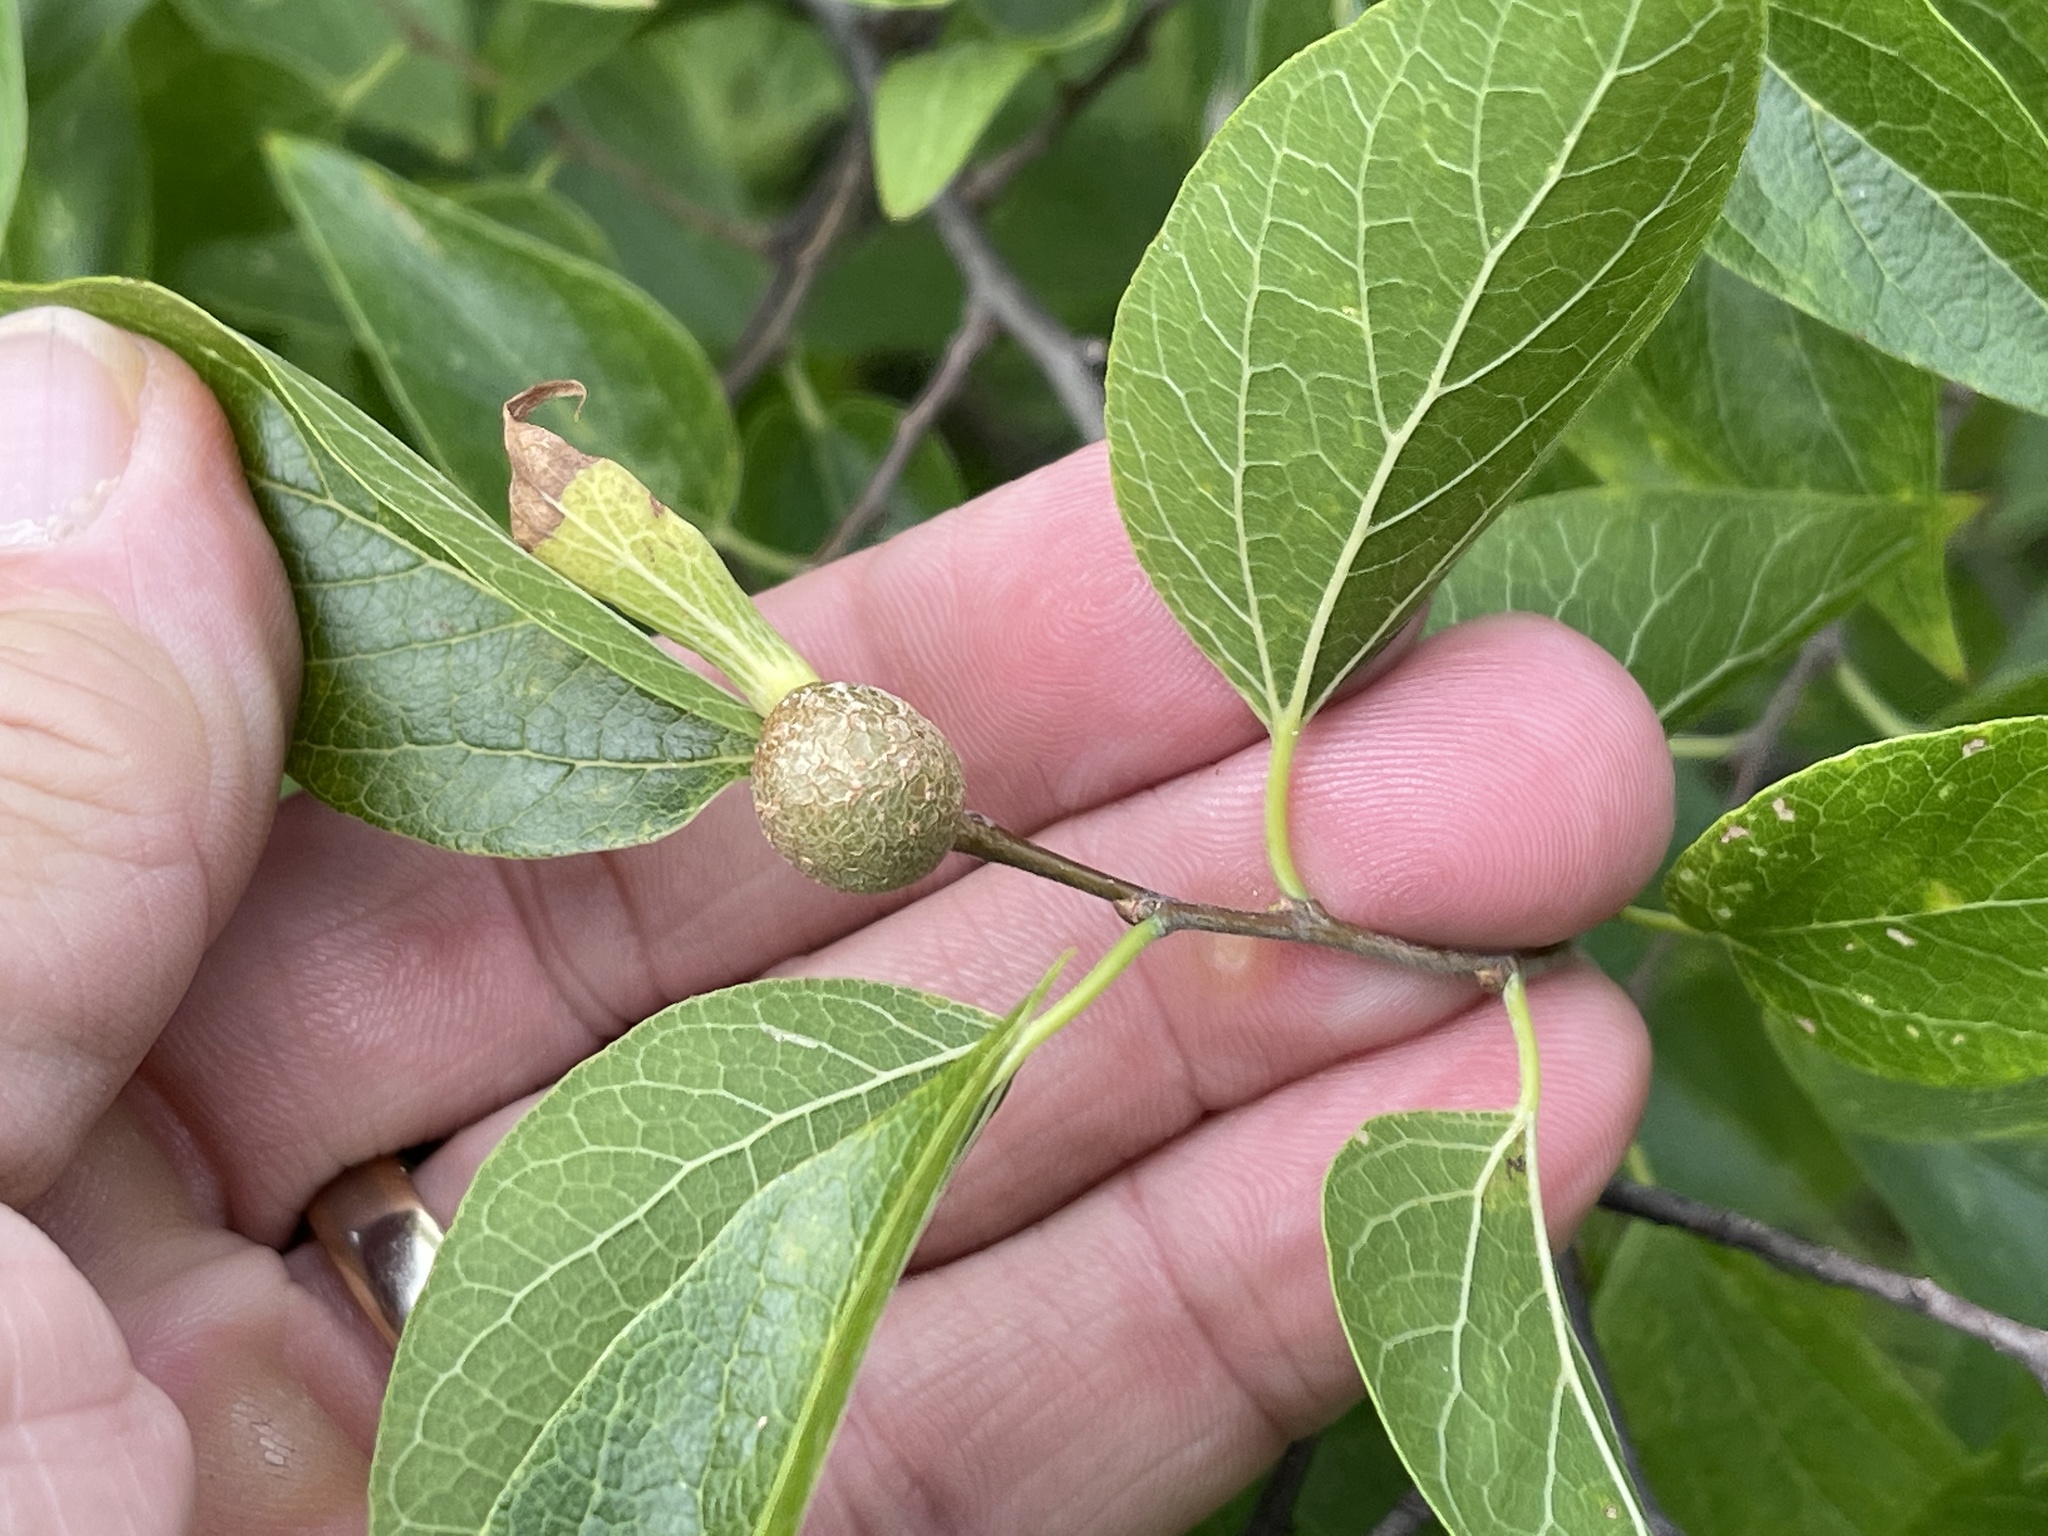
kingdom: Animalia
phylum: Arthropoda
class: Insecta
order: Hemiptera
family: Aphalaridae
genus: Pachypsylla
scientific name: Pachypsylla venusta
